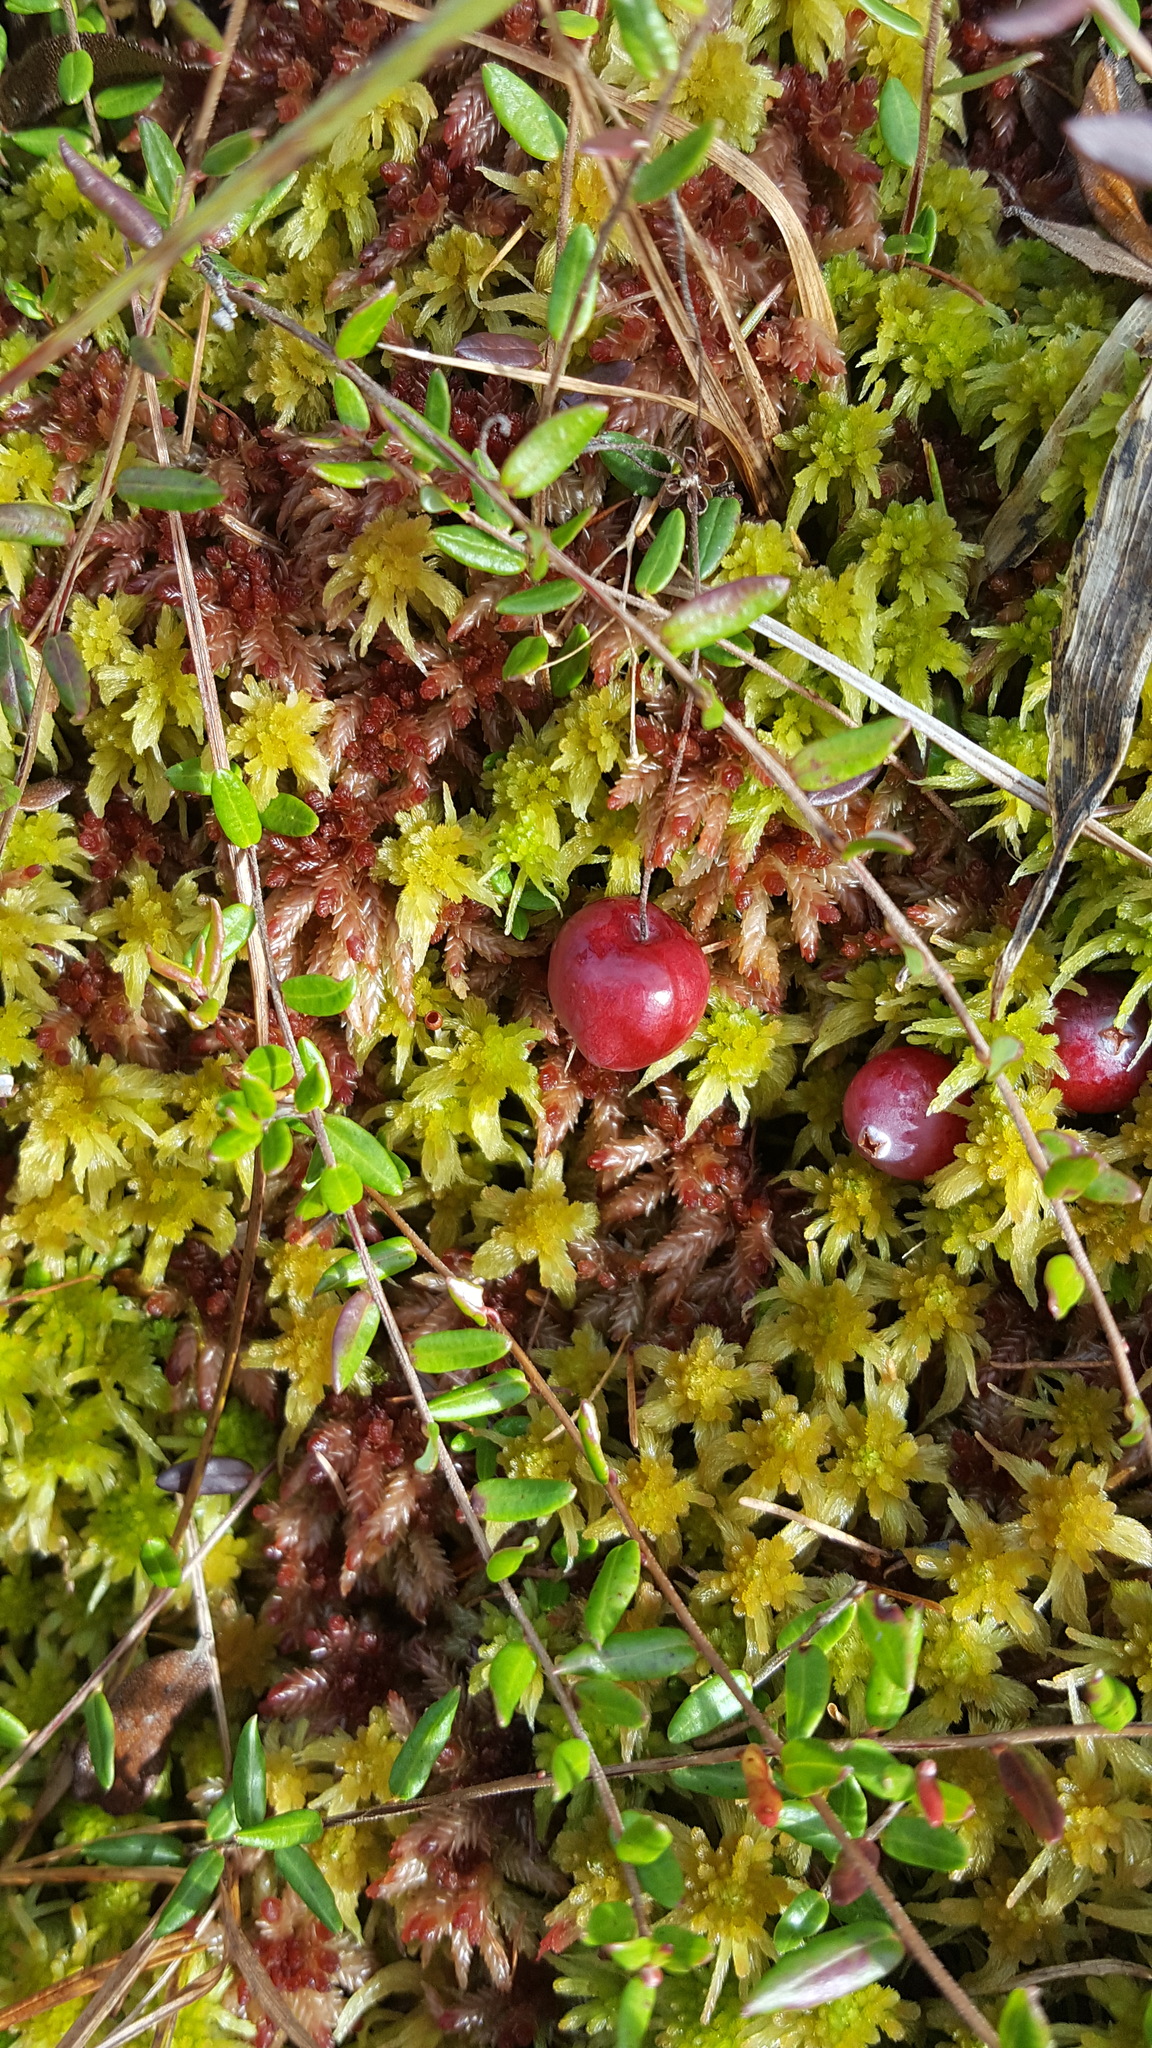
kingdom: Plantae
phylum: Tracheophyta
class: Magnoliopsida
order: Ericales
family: Ericaceae
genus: Vaccinium
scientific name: Vaccinium oxycoccos
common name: Cranberry
